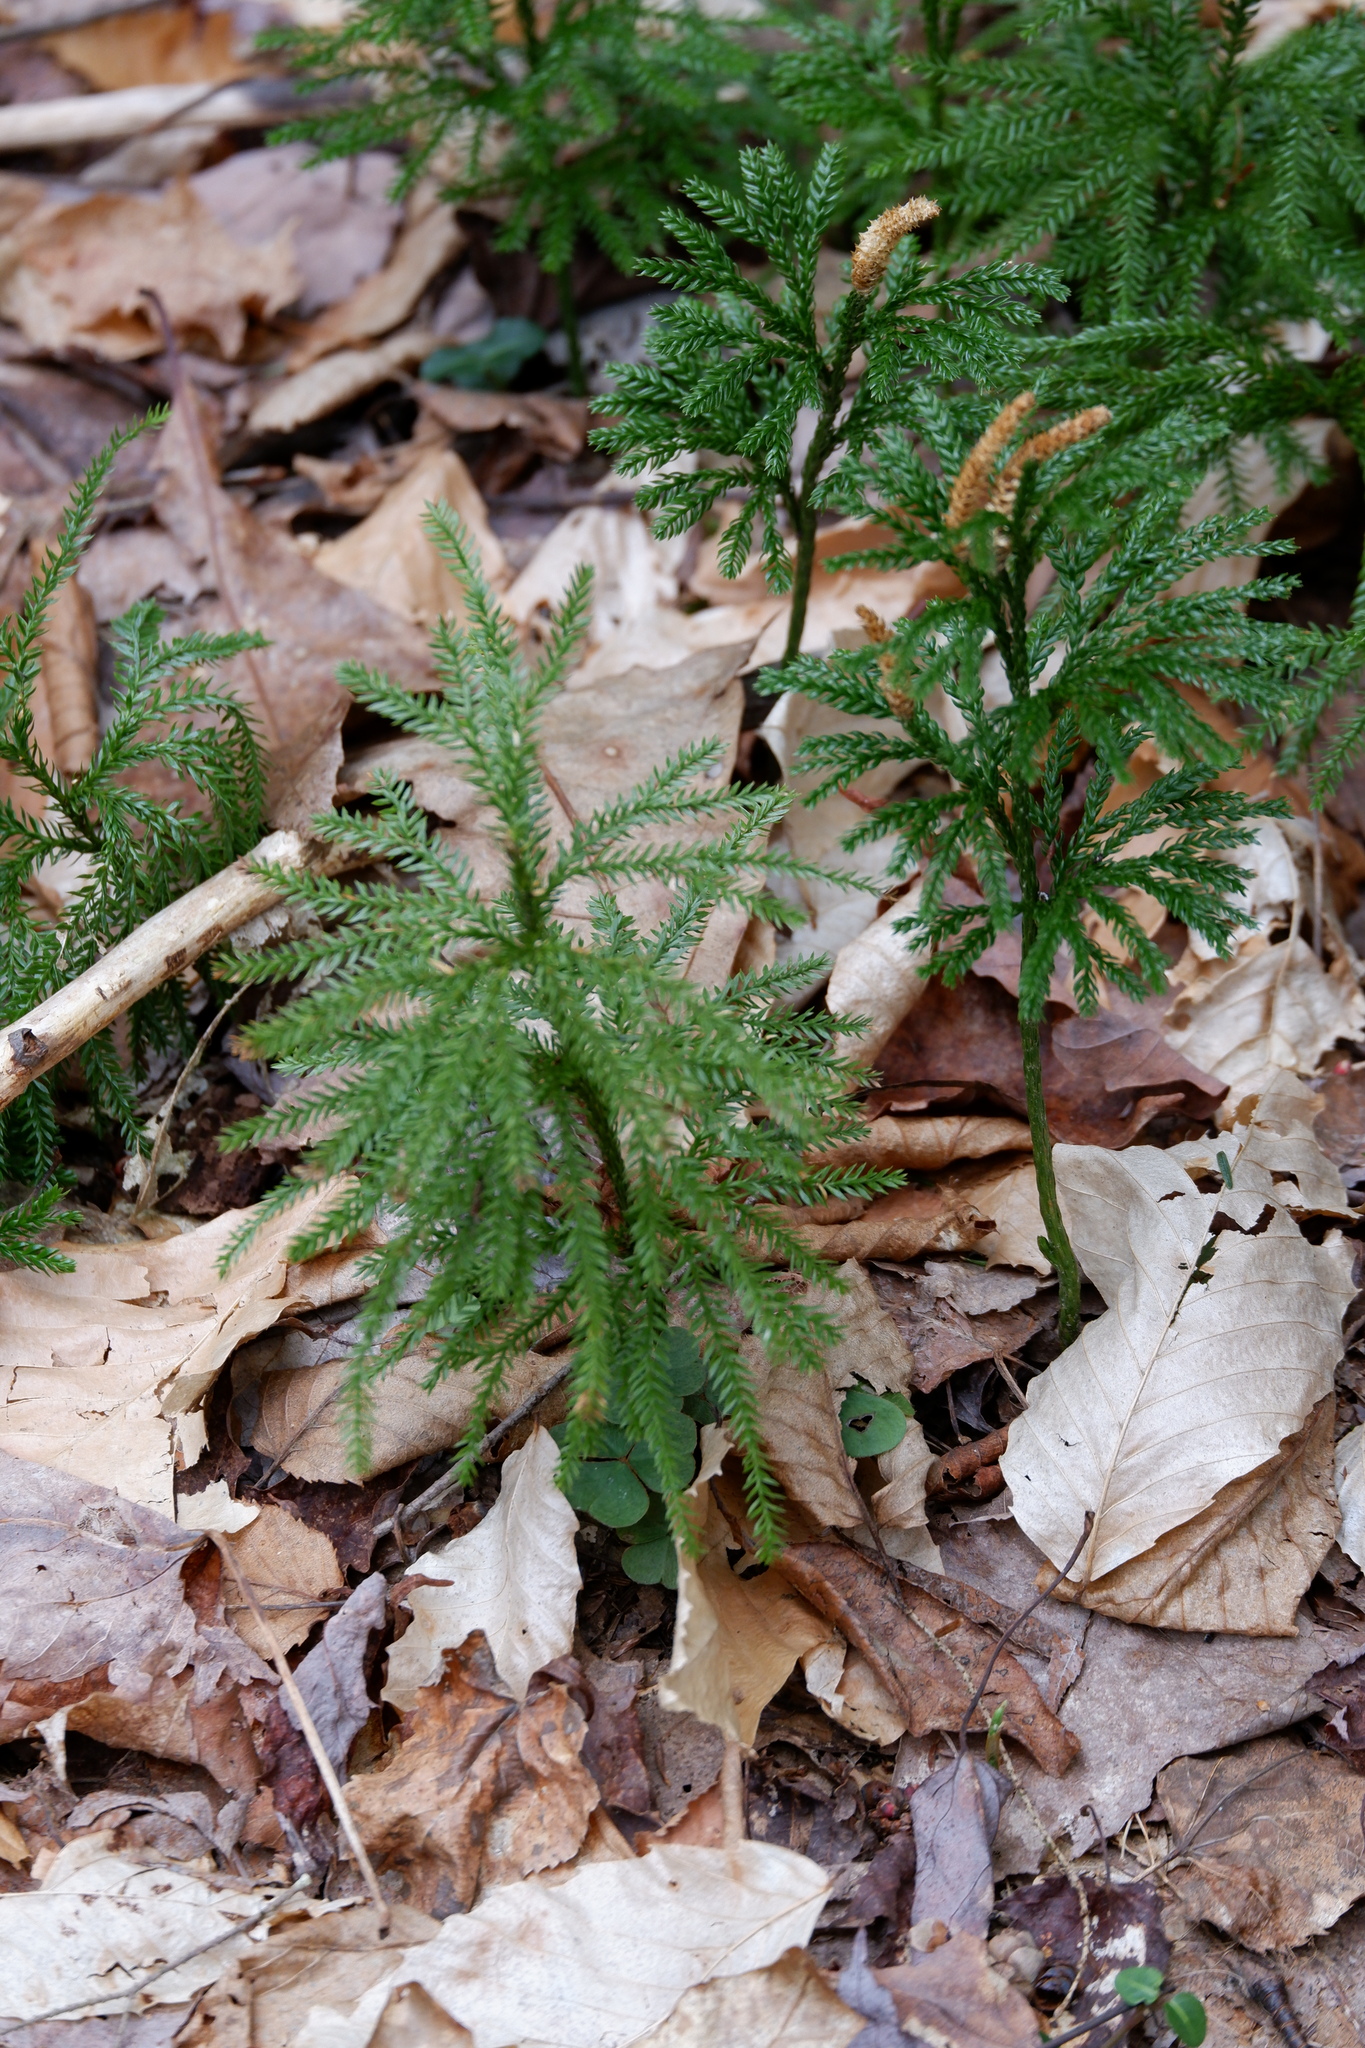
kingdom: Plantae
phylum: Tracheophyta
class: Lycopodiopsida
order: Lycopodiales
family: Lycopodiaceae
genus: Dendrolycopodium
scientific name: Dendrolycopodium obscurum
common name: Common ground-pine
